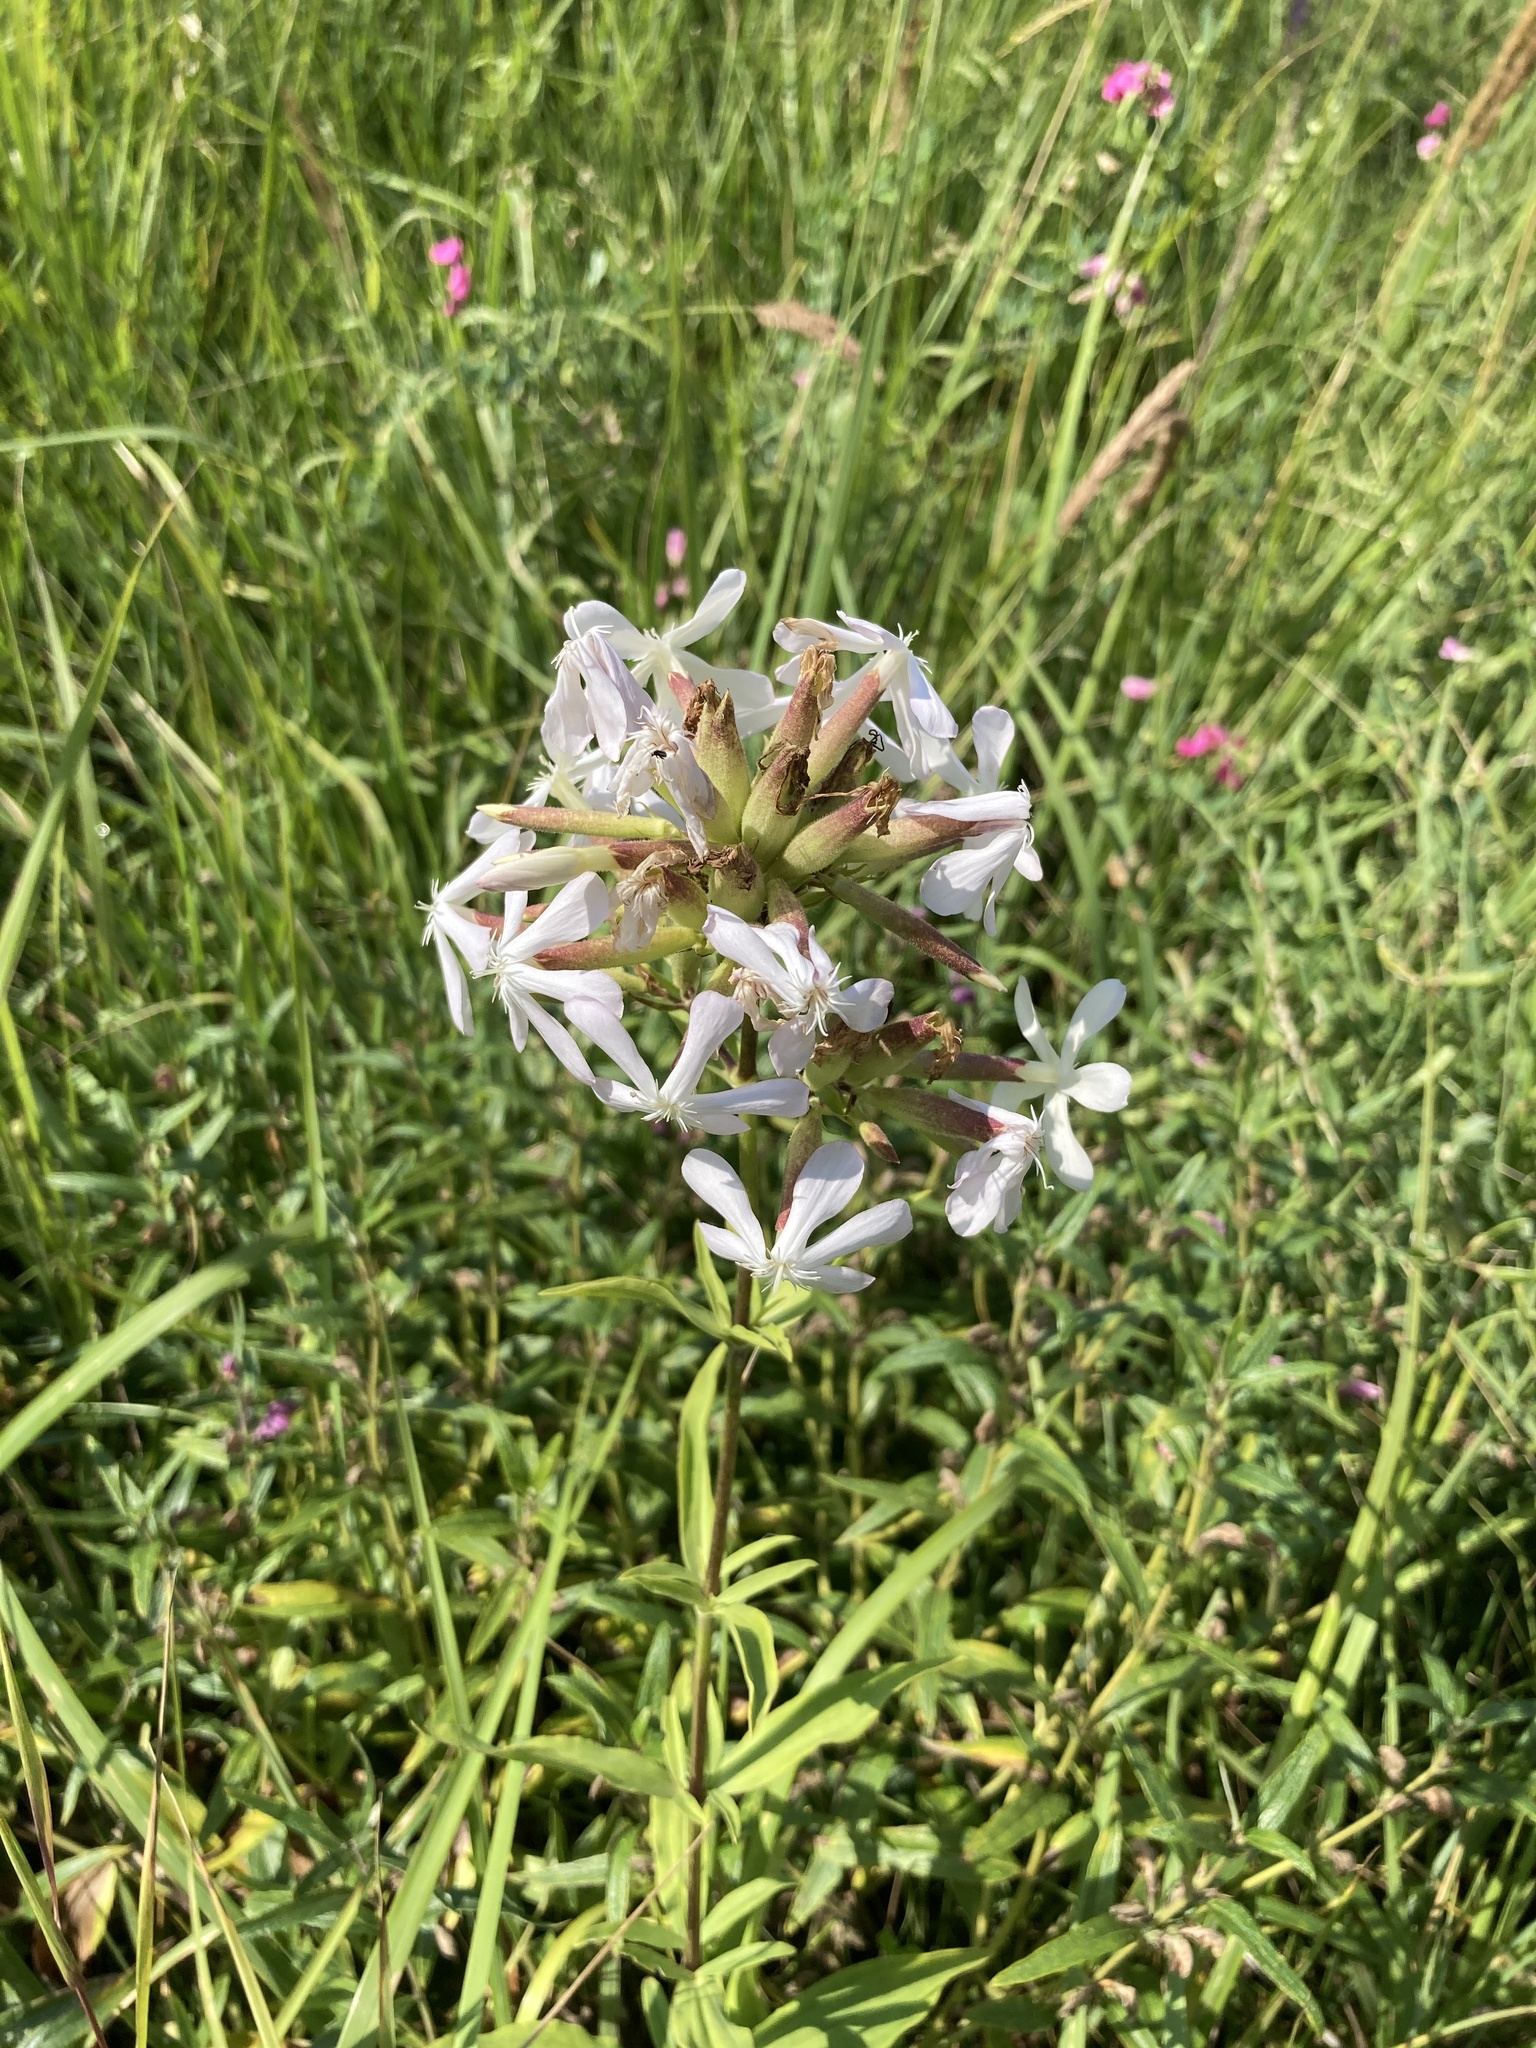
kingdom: Plantae
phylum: Tracheophyta
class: Magnoliopsida
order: Caryophyllales
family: Caryophyllaceae
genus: Saponaria
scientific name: Saponaria officinalis
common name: Soapwort
